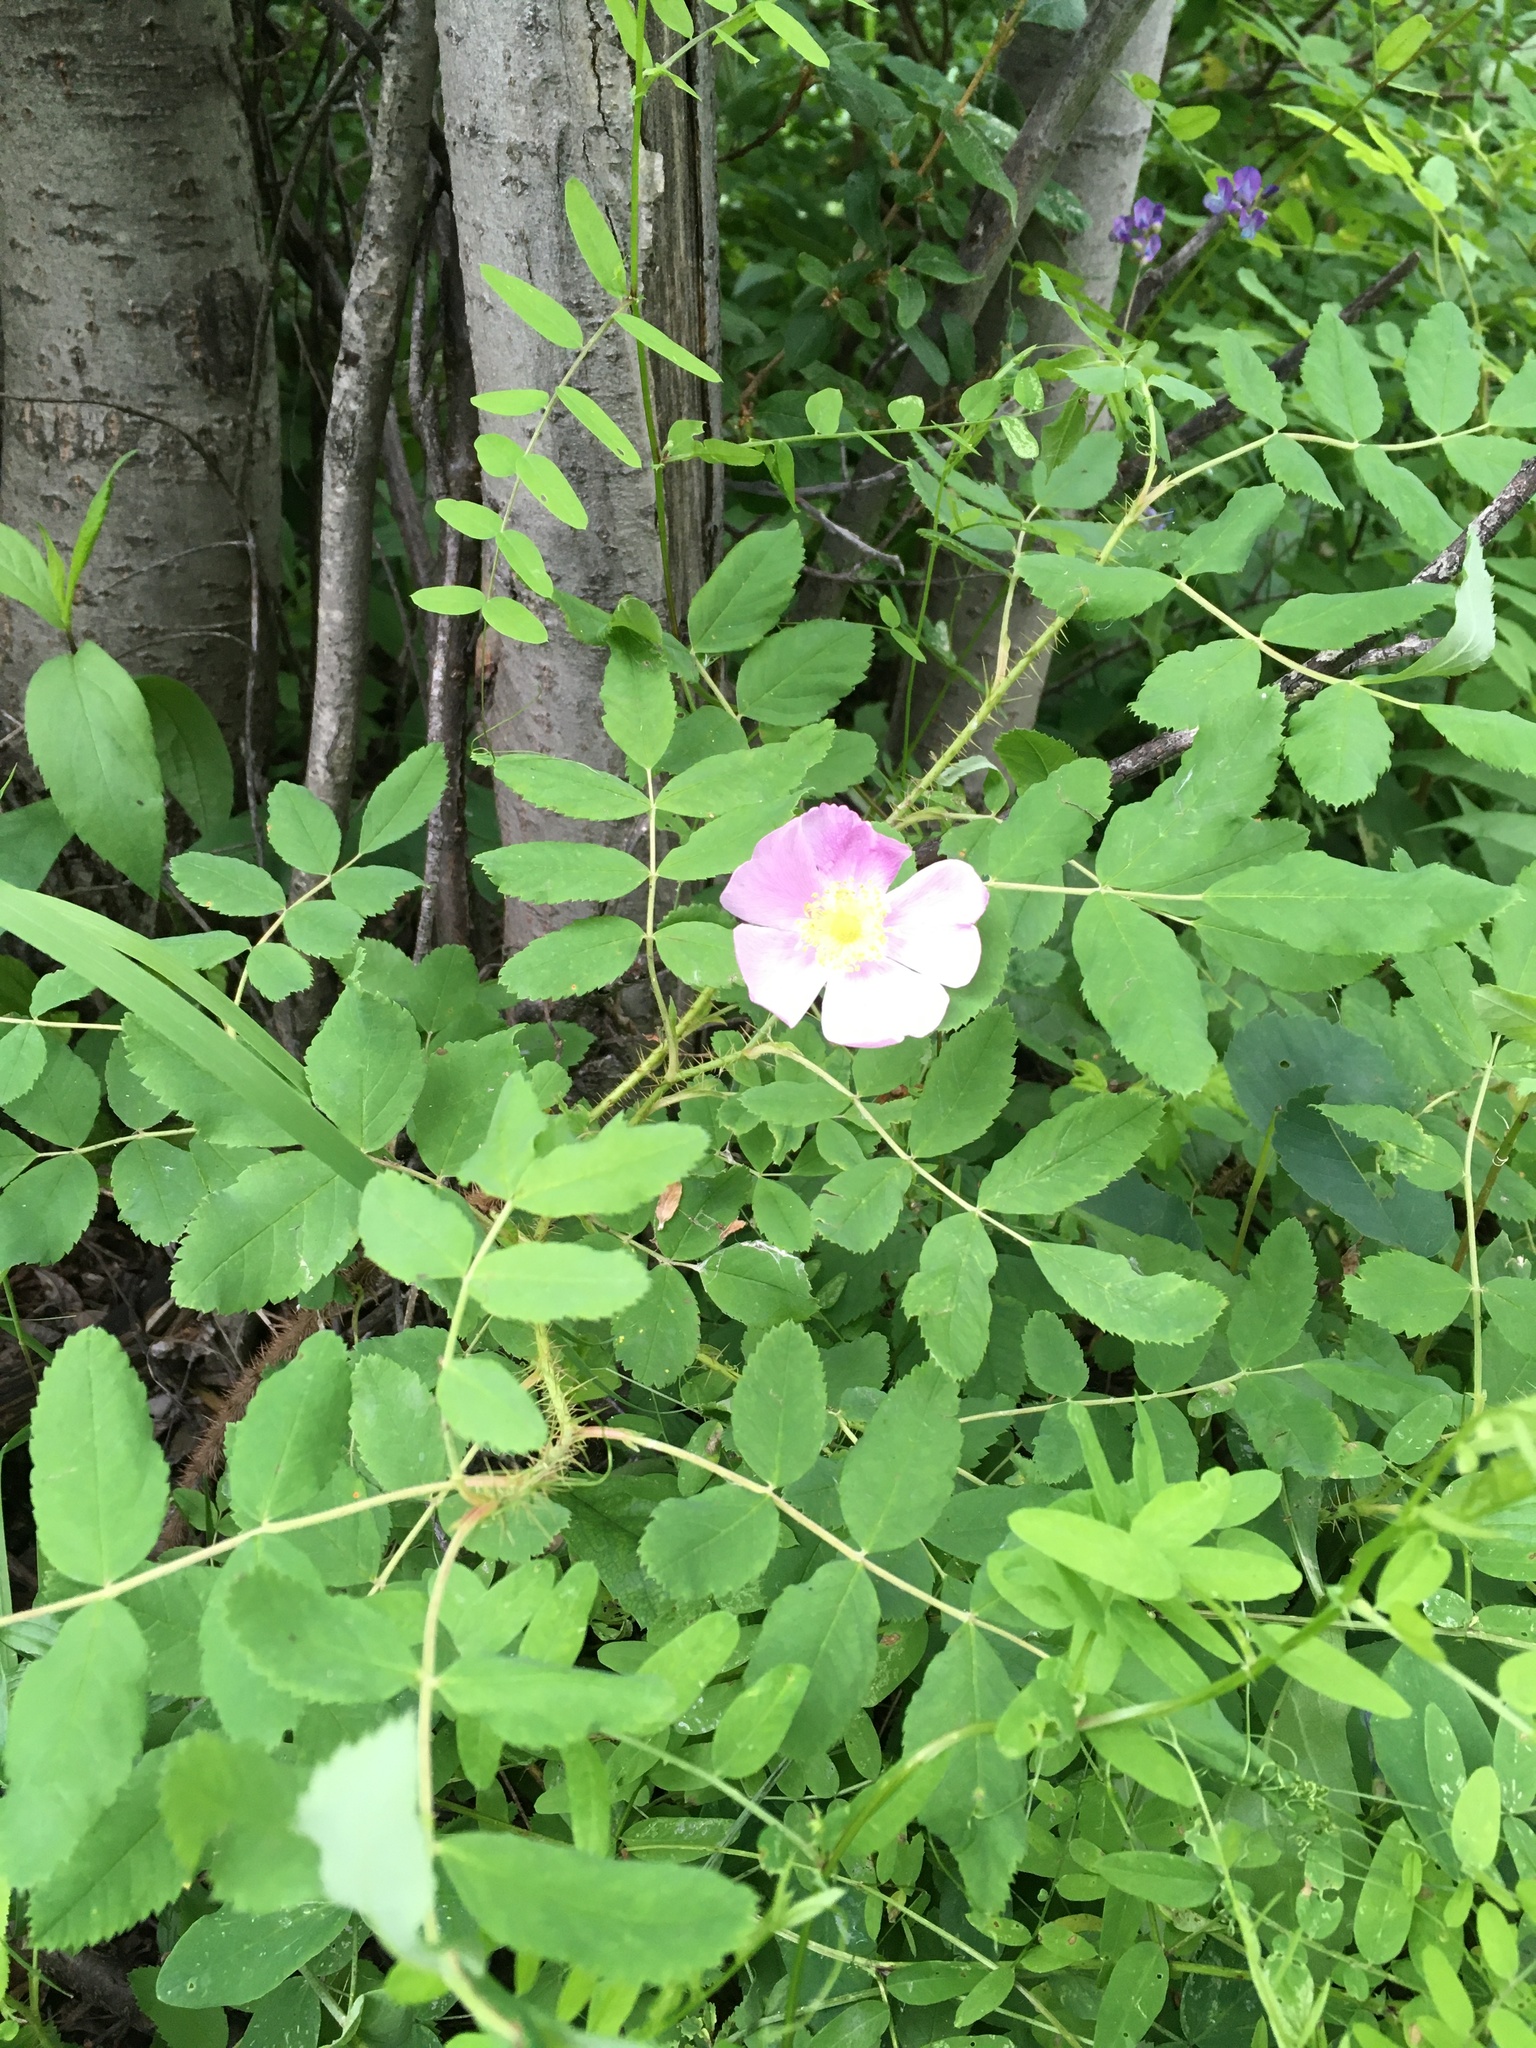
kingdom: Plantae
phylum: Tracheophyta
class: Magnoliopsida
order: Rosales
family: Rosaceae
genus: Rosa
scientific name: Rosa acicularis
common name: Prickly rose
